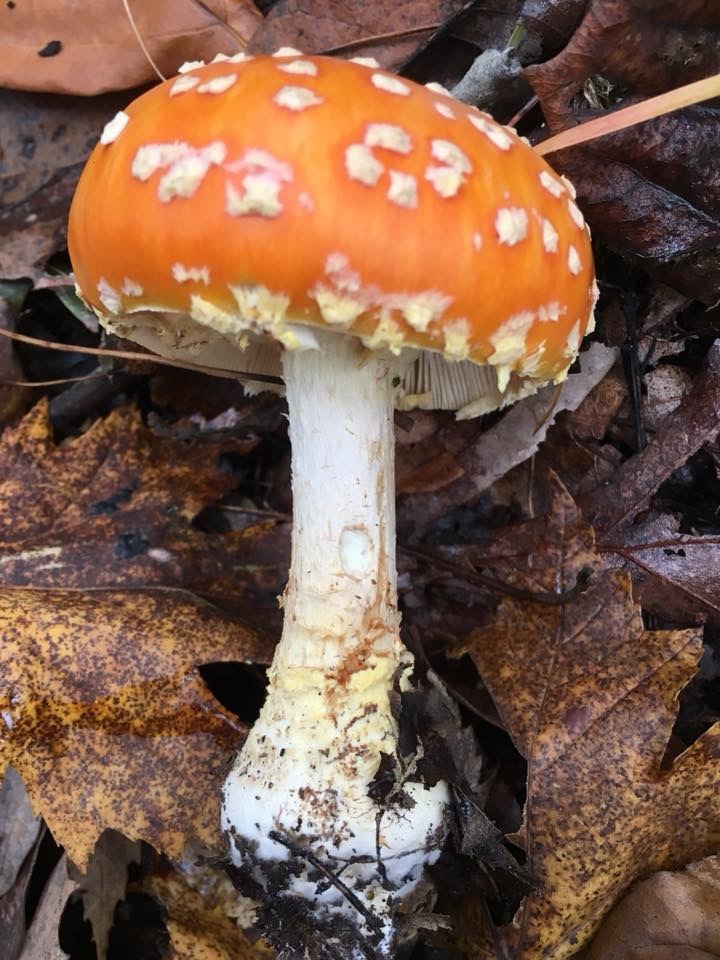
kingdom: Fungi
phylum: Basidiomycota
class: Agaricomycetes
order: Agaricales
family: Amanitaceae
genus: Amanita
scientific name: Amanita muscaria
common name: Fly agaric
